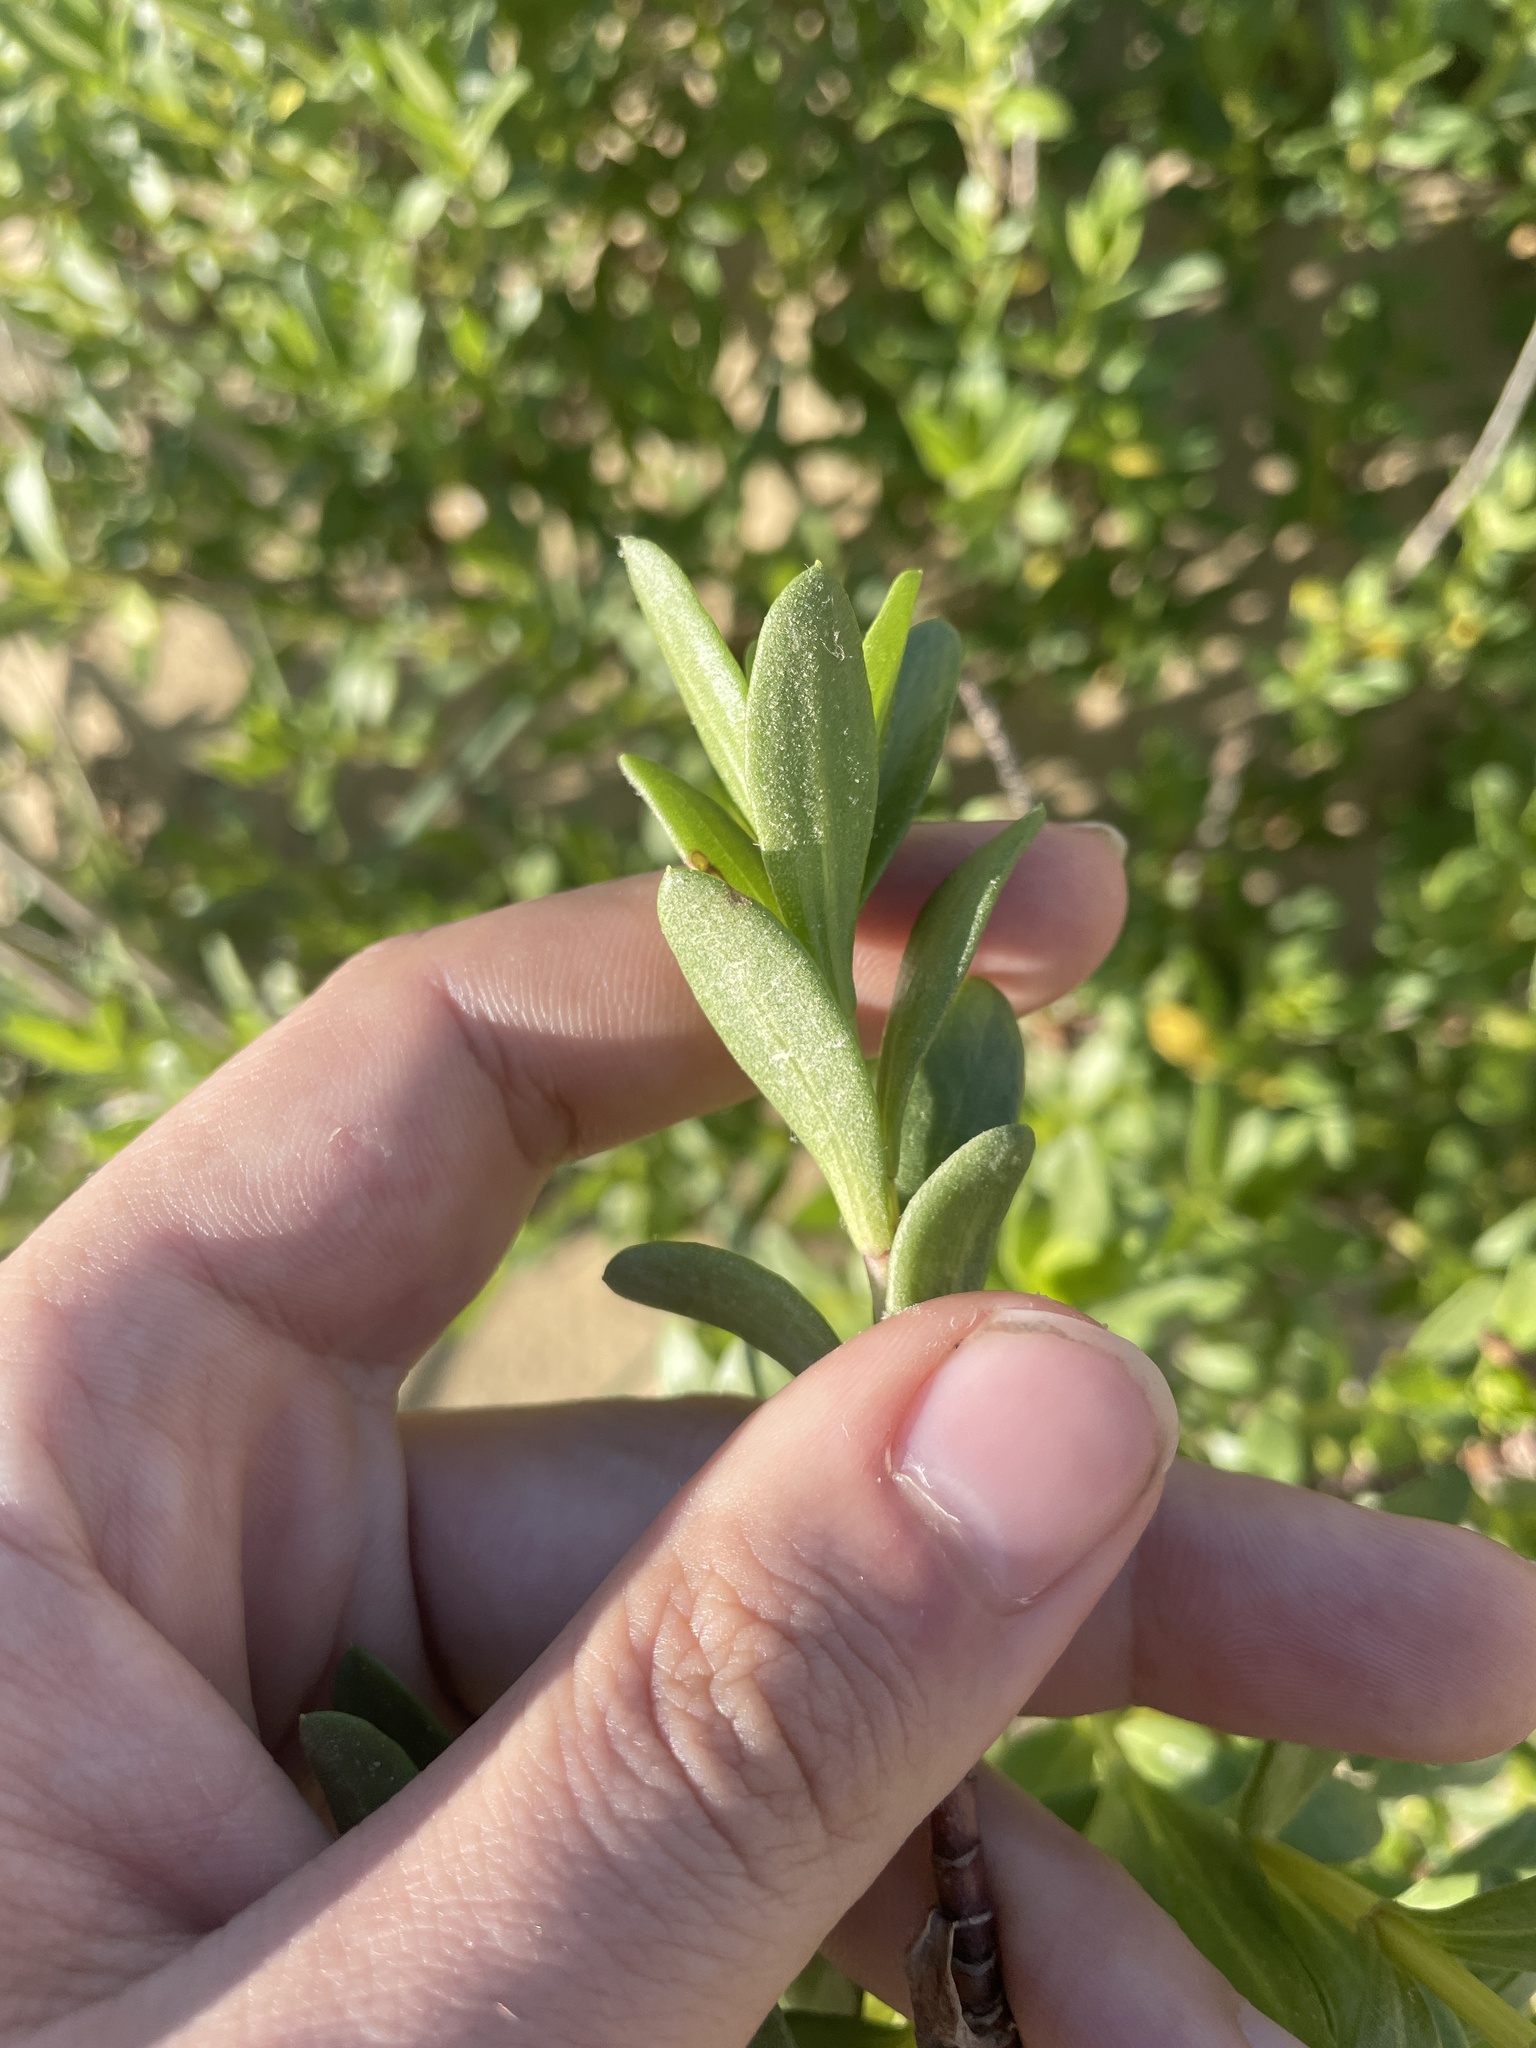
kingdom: Plantae
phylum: Tracheophyta
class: Magnoliopsida
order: Asterales
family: Asteraceae
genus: Iva
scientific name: Iva imbricata
